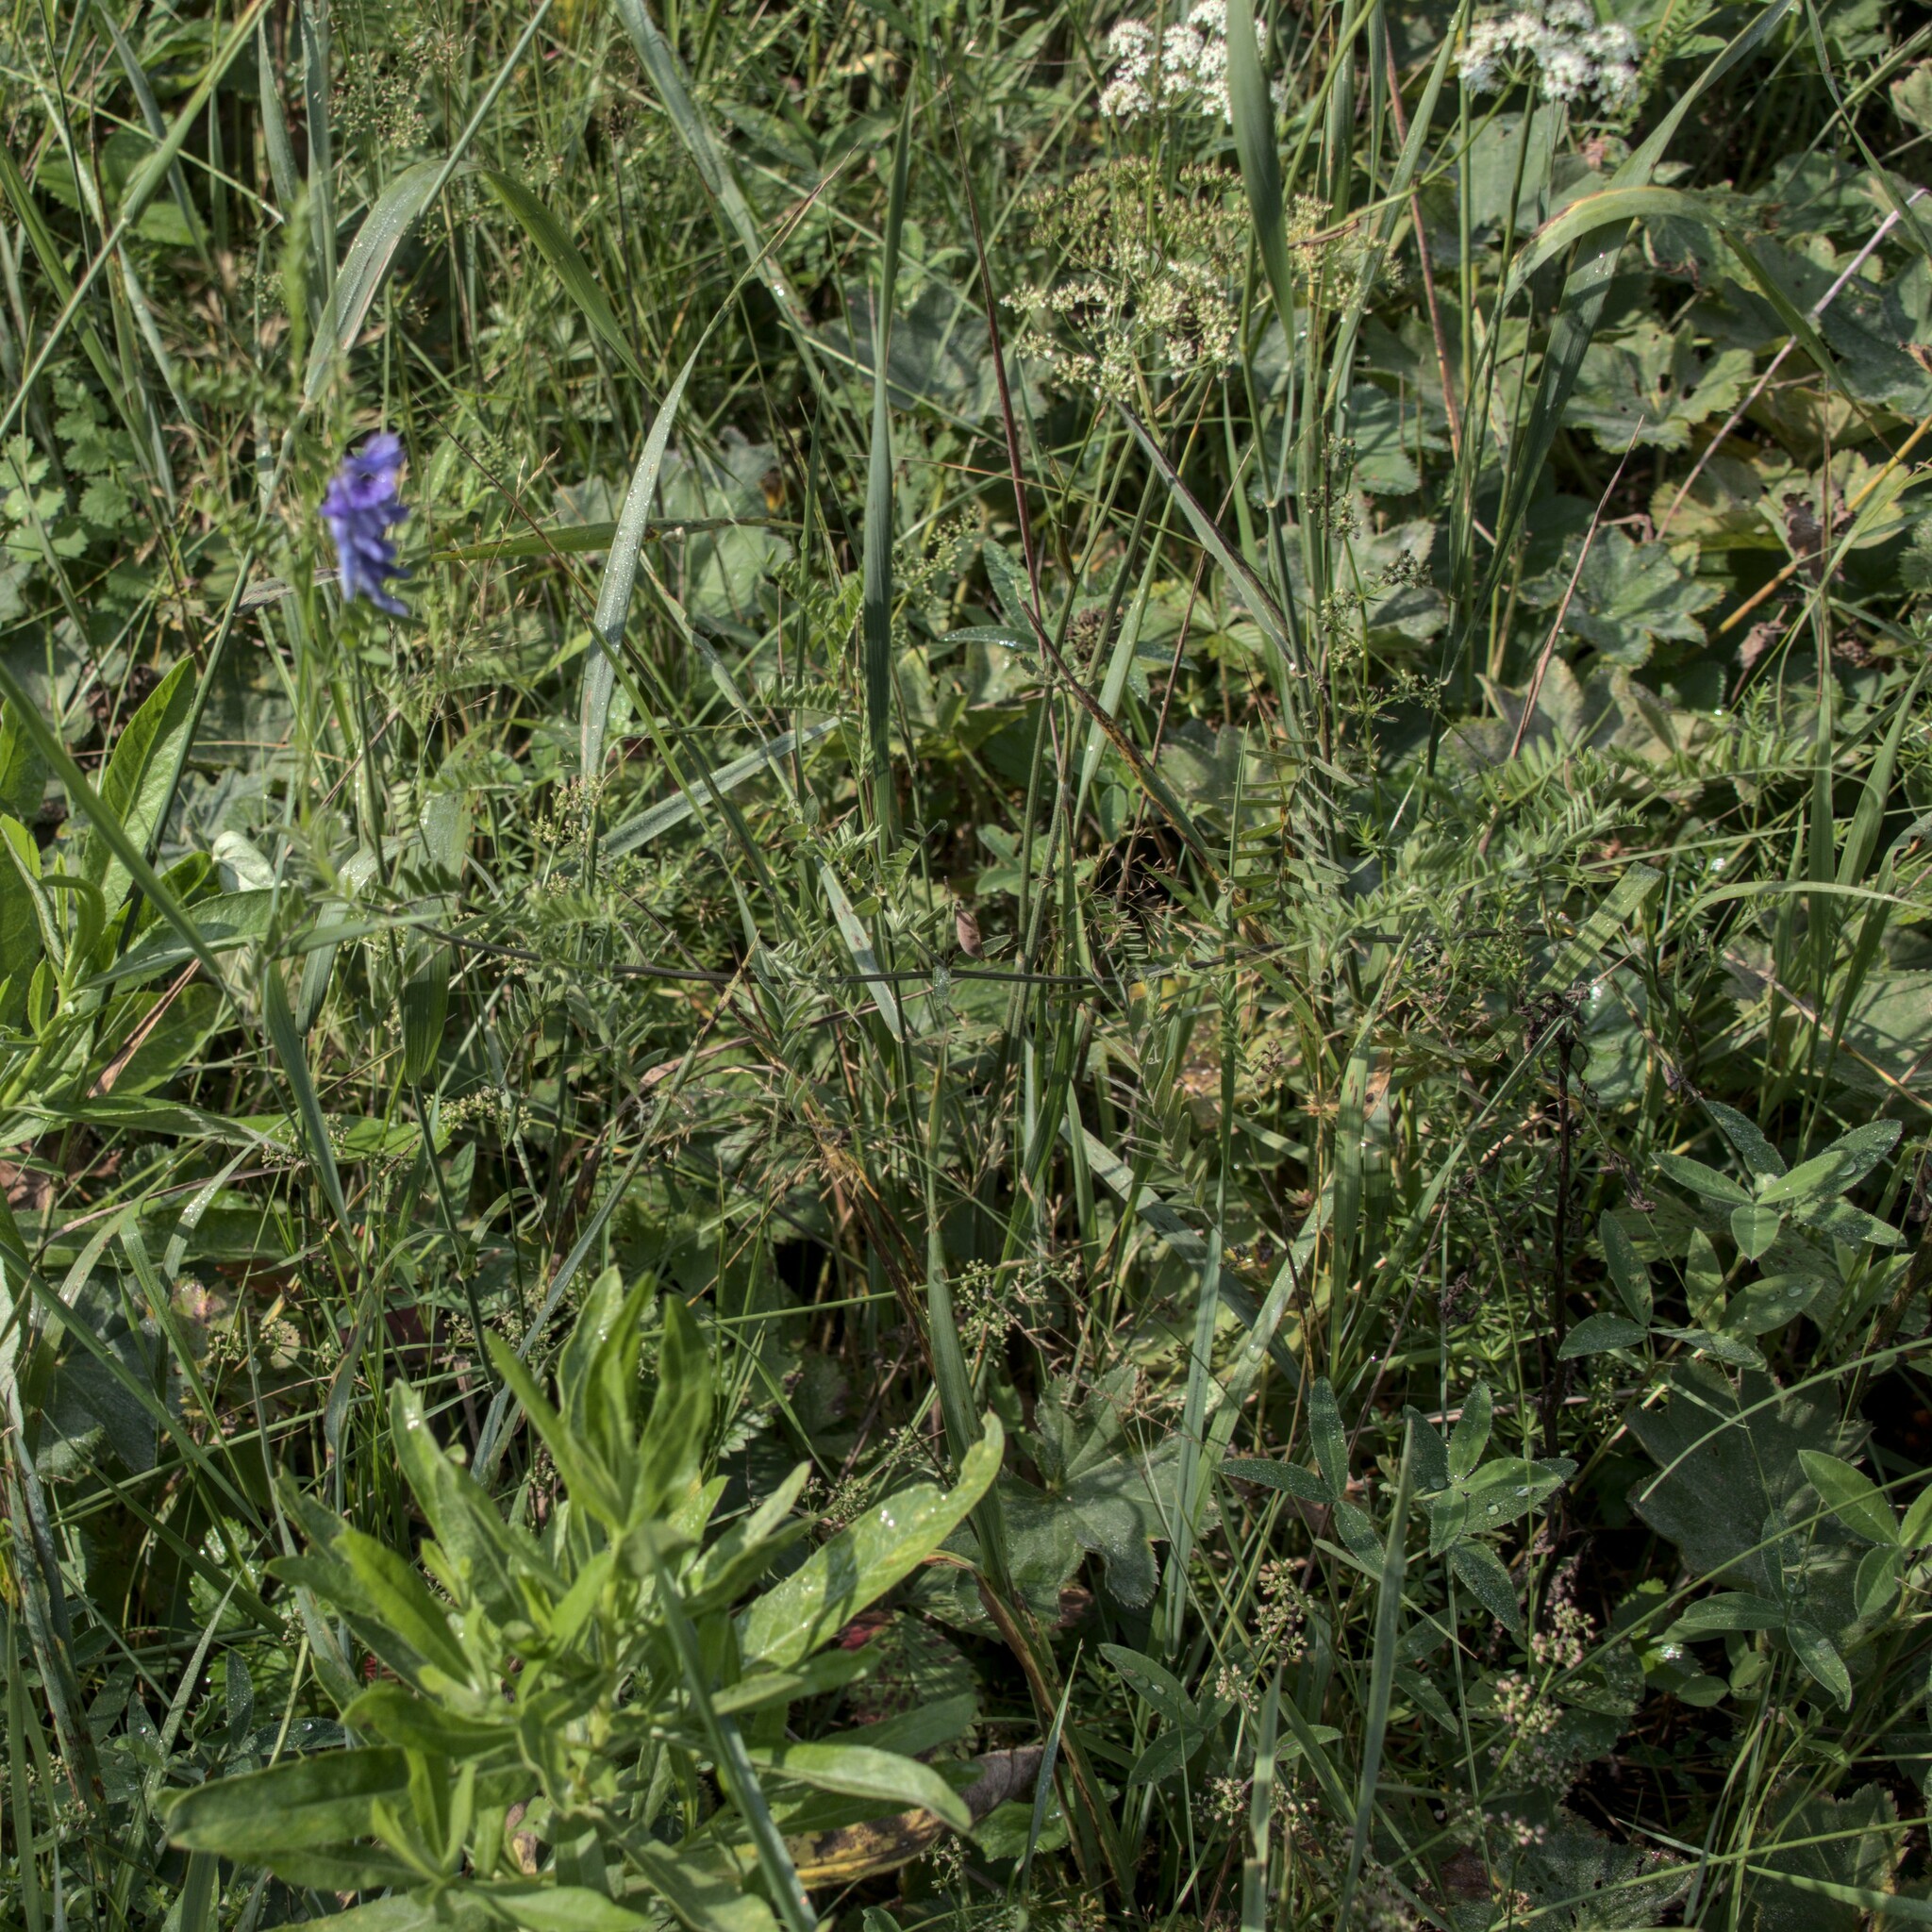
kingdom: Plantae
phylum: Tracheophyta
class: Magnoliopsida
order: Fabales
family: Fabaceae
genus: Vicia
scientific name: Vicia cracca
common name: Bird vetch
